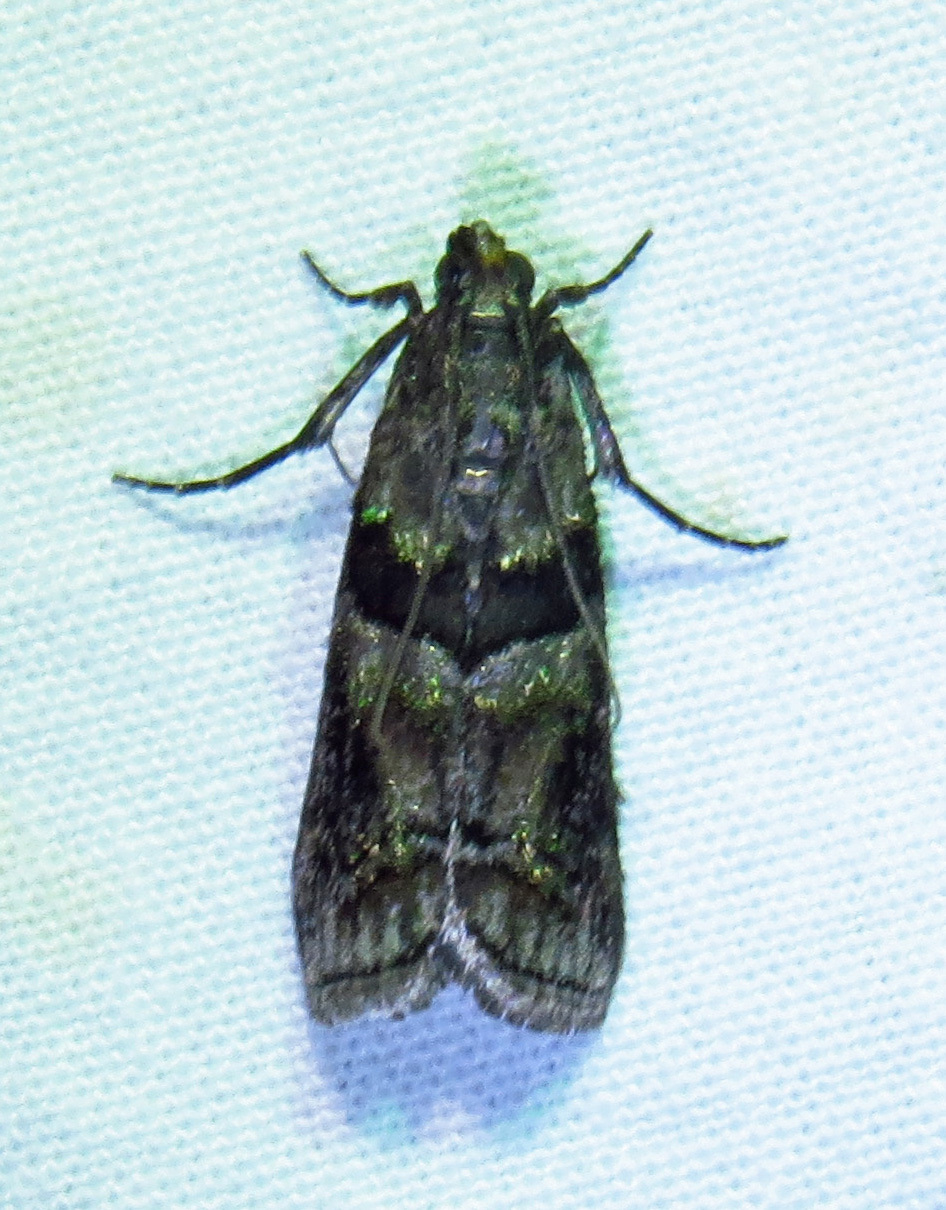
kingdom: Animalia
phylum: Arthropoda
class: Insecta
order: Lepidoptera
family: Pyralidae
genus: Dioryctria
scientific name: Dioryctria clarioralis
